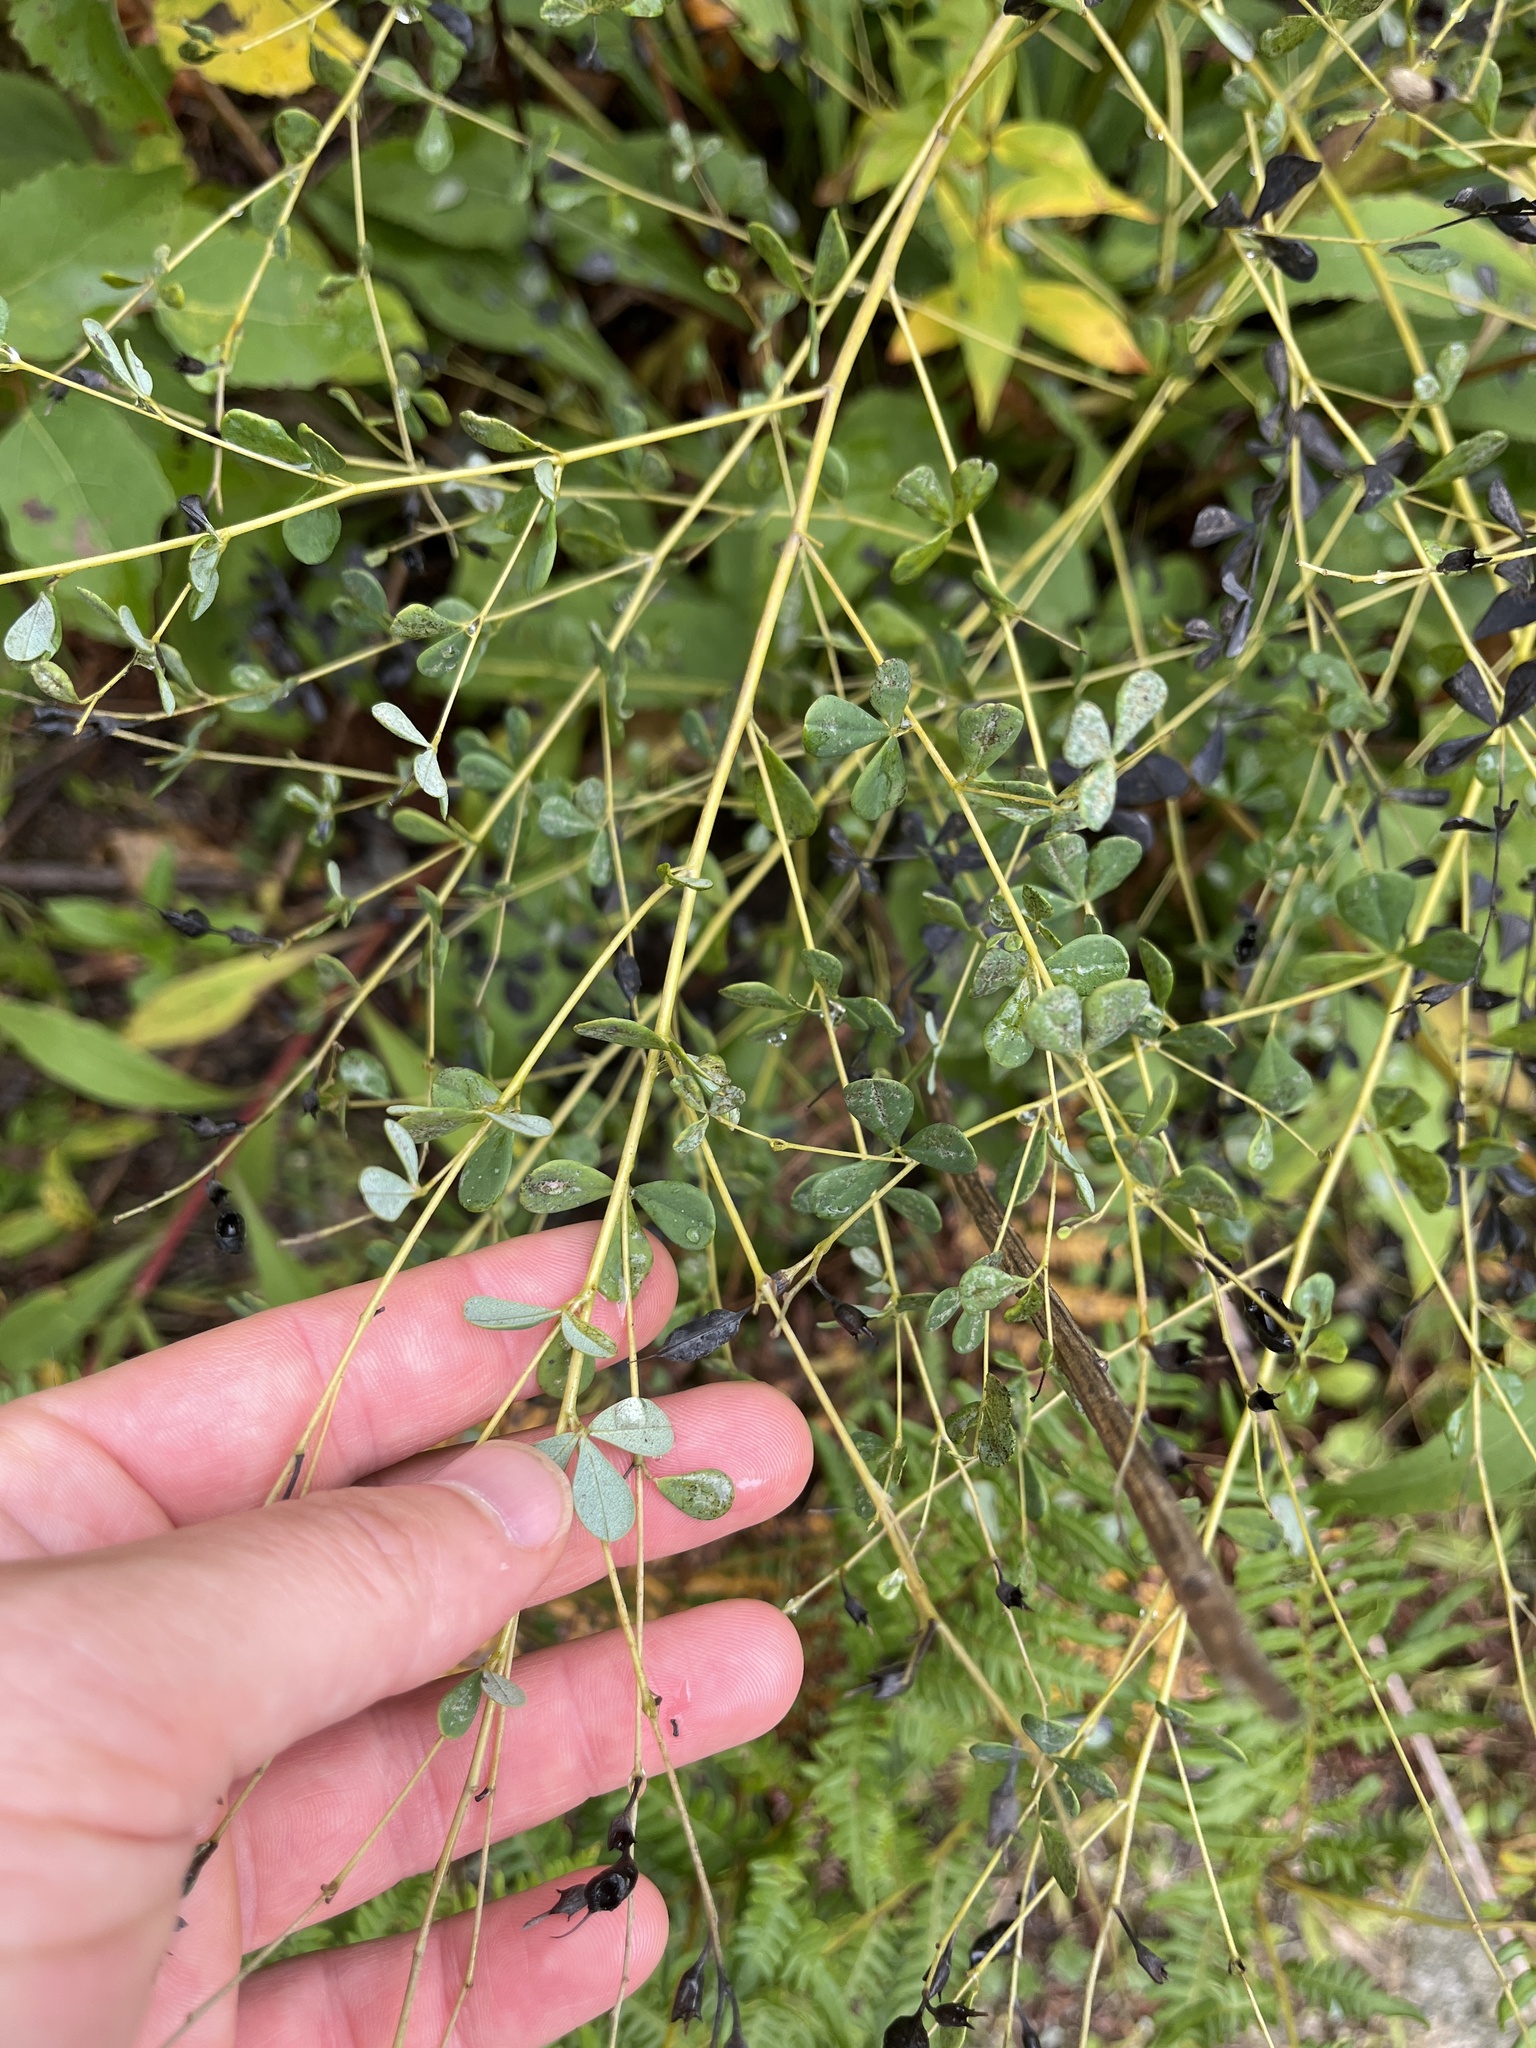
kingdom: Plantae
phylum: Tracheophyta
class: Magnoliopsida
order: Fabales
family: Fabaceae
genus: Baptisia
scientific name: Baptisia tinctoria
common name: Wild indigo
